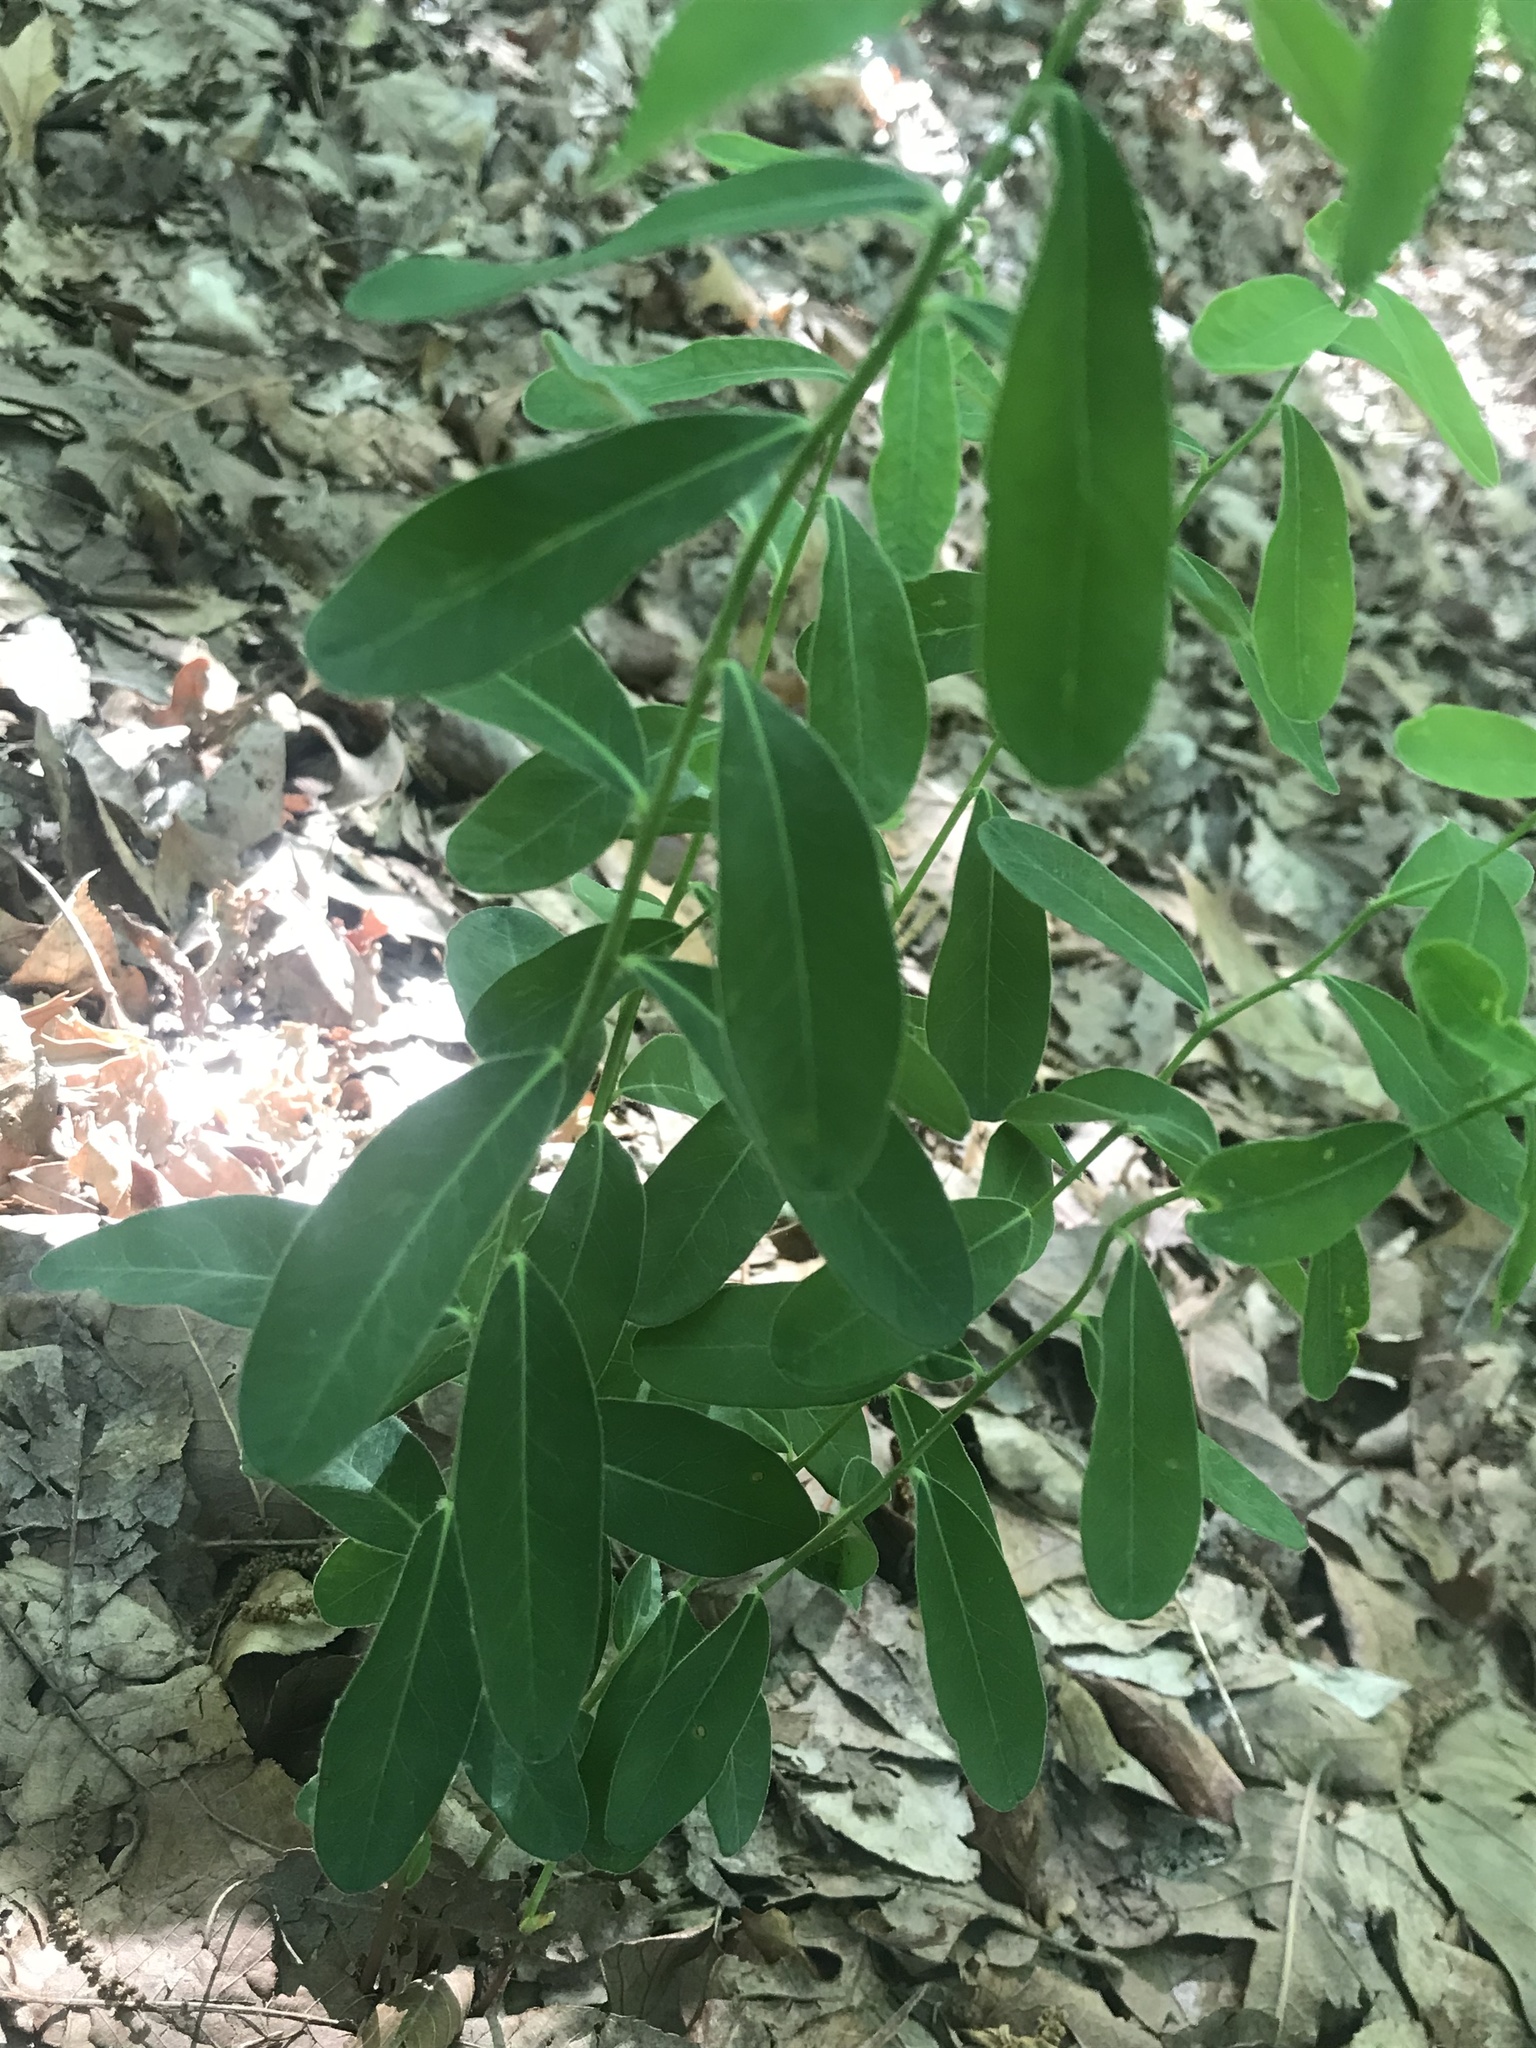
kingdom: Plantae
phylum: Tracheophyta
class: Magnoliopsida
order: Malpighiales
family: Euphorbiaceae
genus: Euphorbia
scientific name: Euphorbia corollata
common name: Flowering spurge
